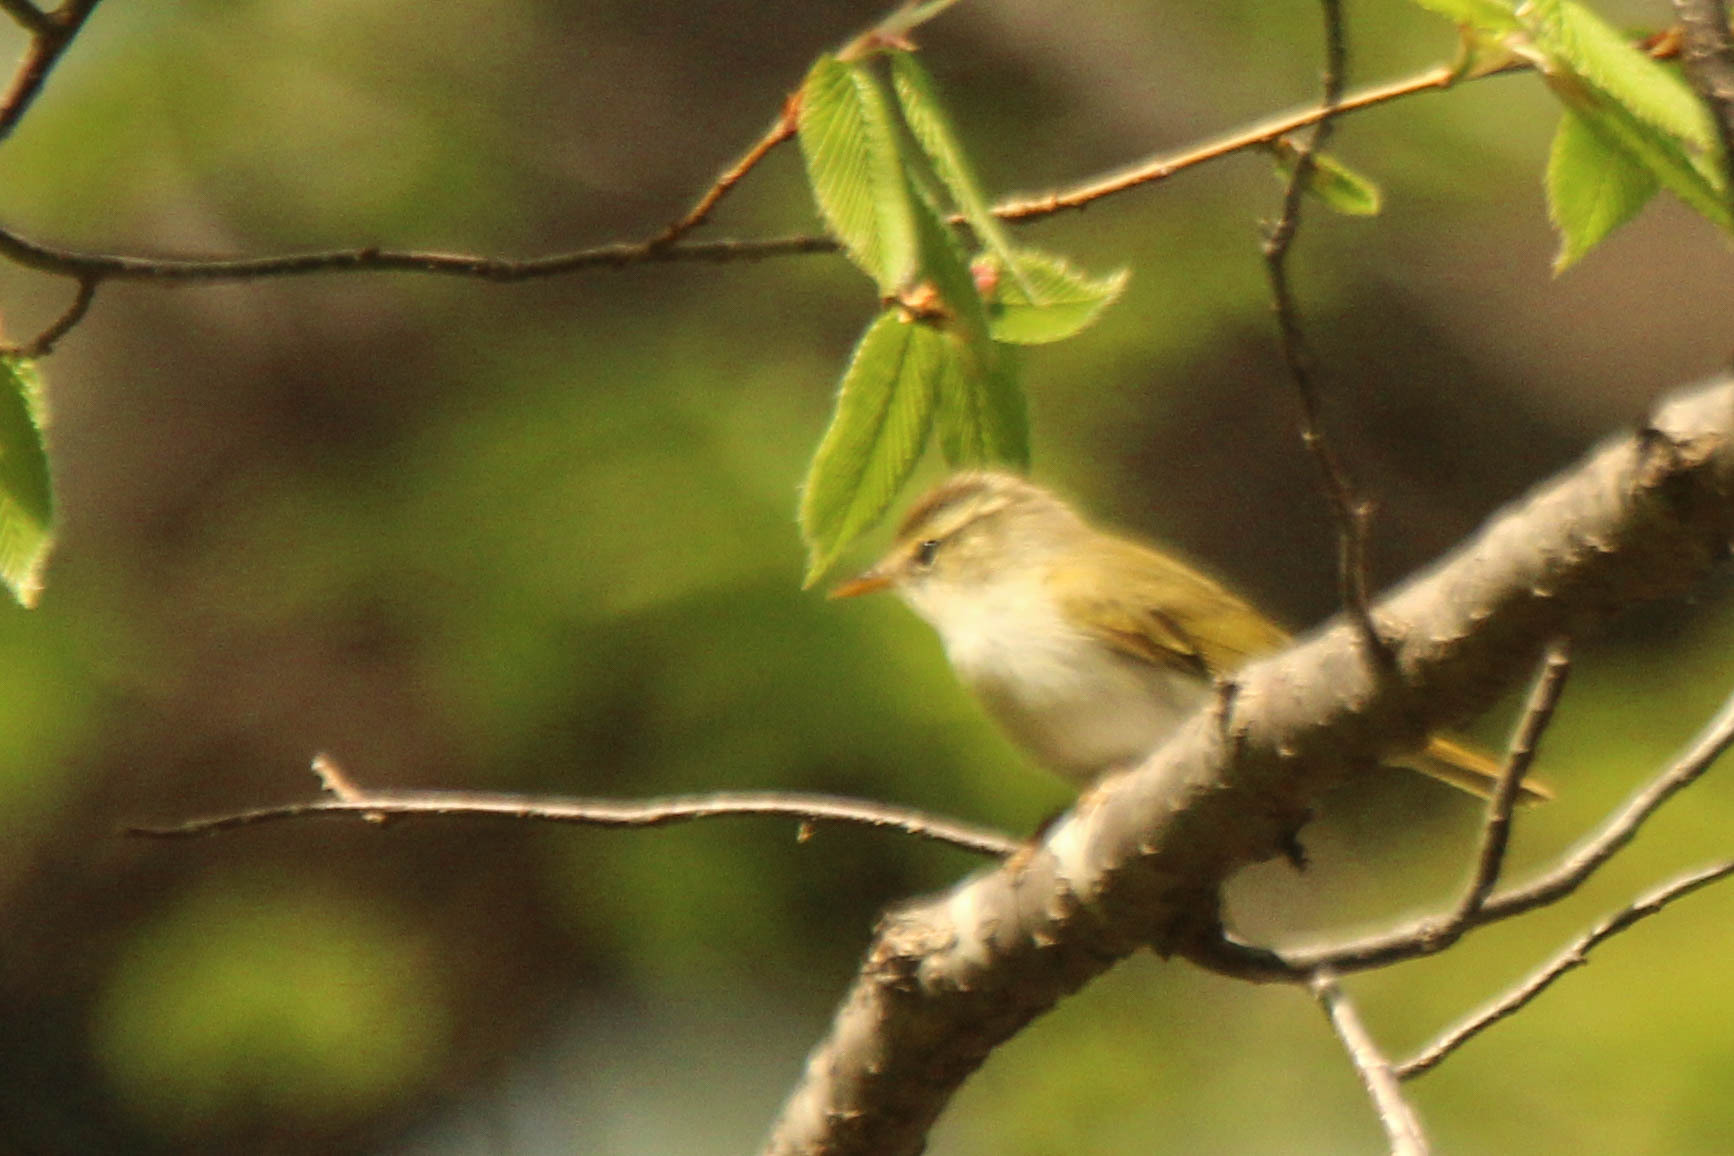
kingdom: Animalia
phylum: Chordata
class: Aves
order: Passeriformes
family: Phylloscopidae
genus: Phylloscopus
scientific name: Phylloscopus coronatus
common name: Eastern crowned warbler
